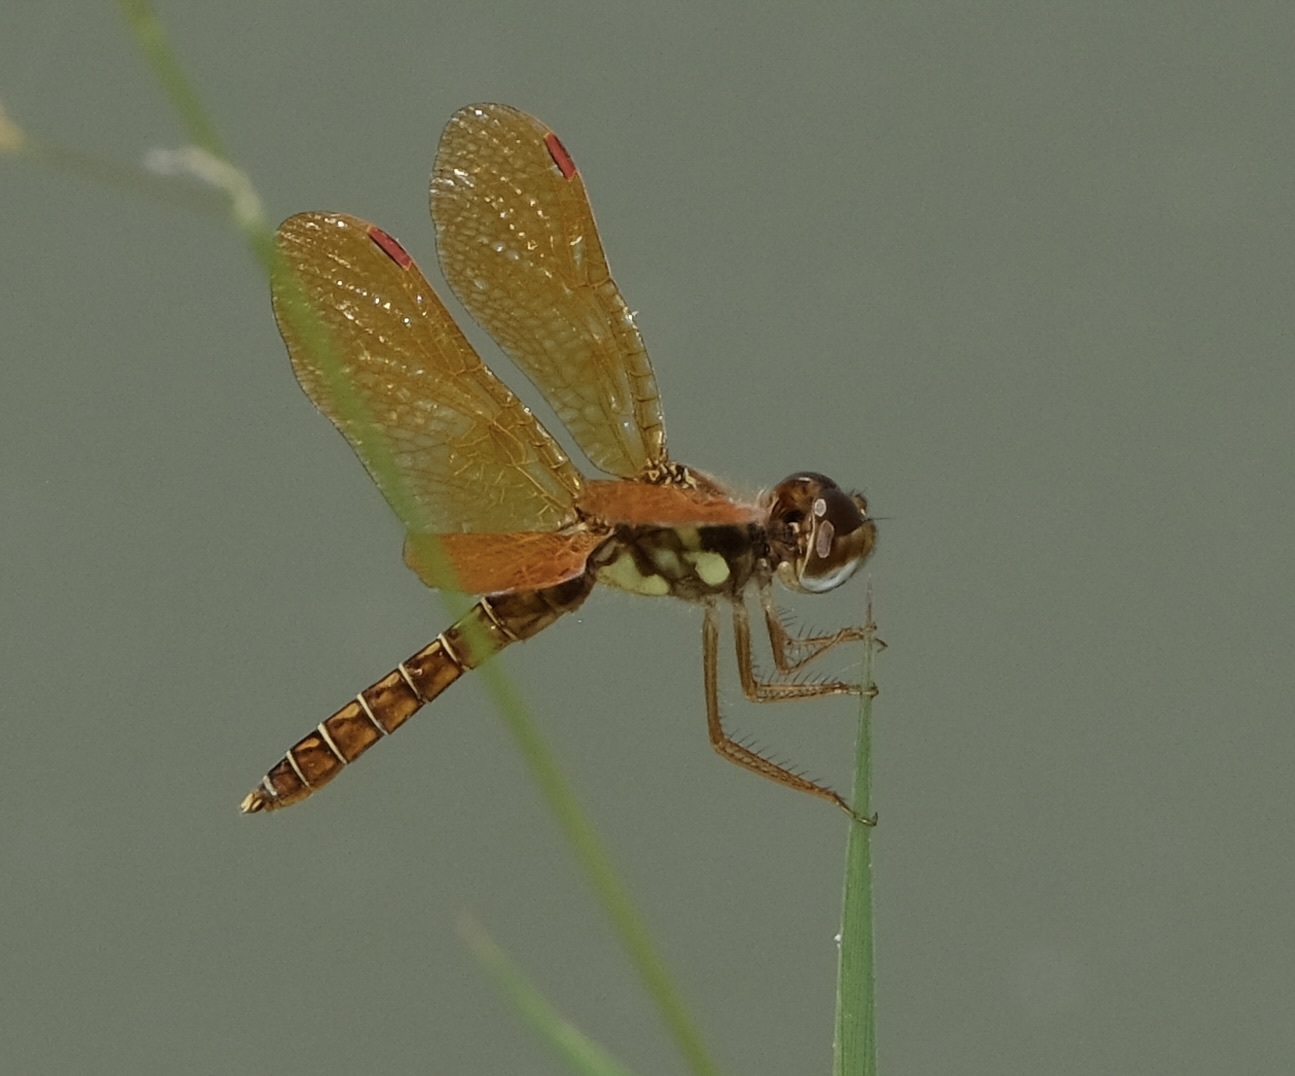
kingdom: Animalia
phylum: Arthropoda
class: Insecta
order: Odonata
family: Libellulidae
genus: Perithemis
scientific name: Perithemis tenera
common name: Eastern amberwing
